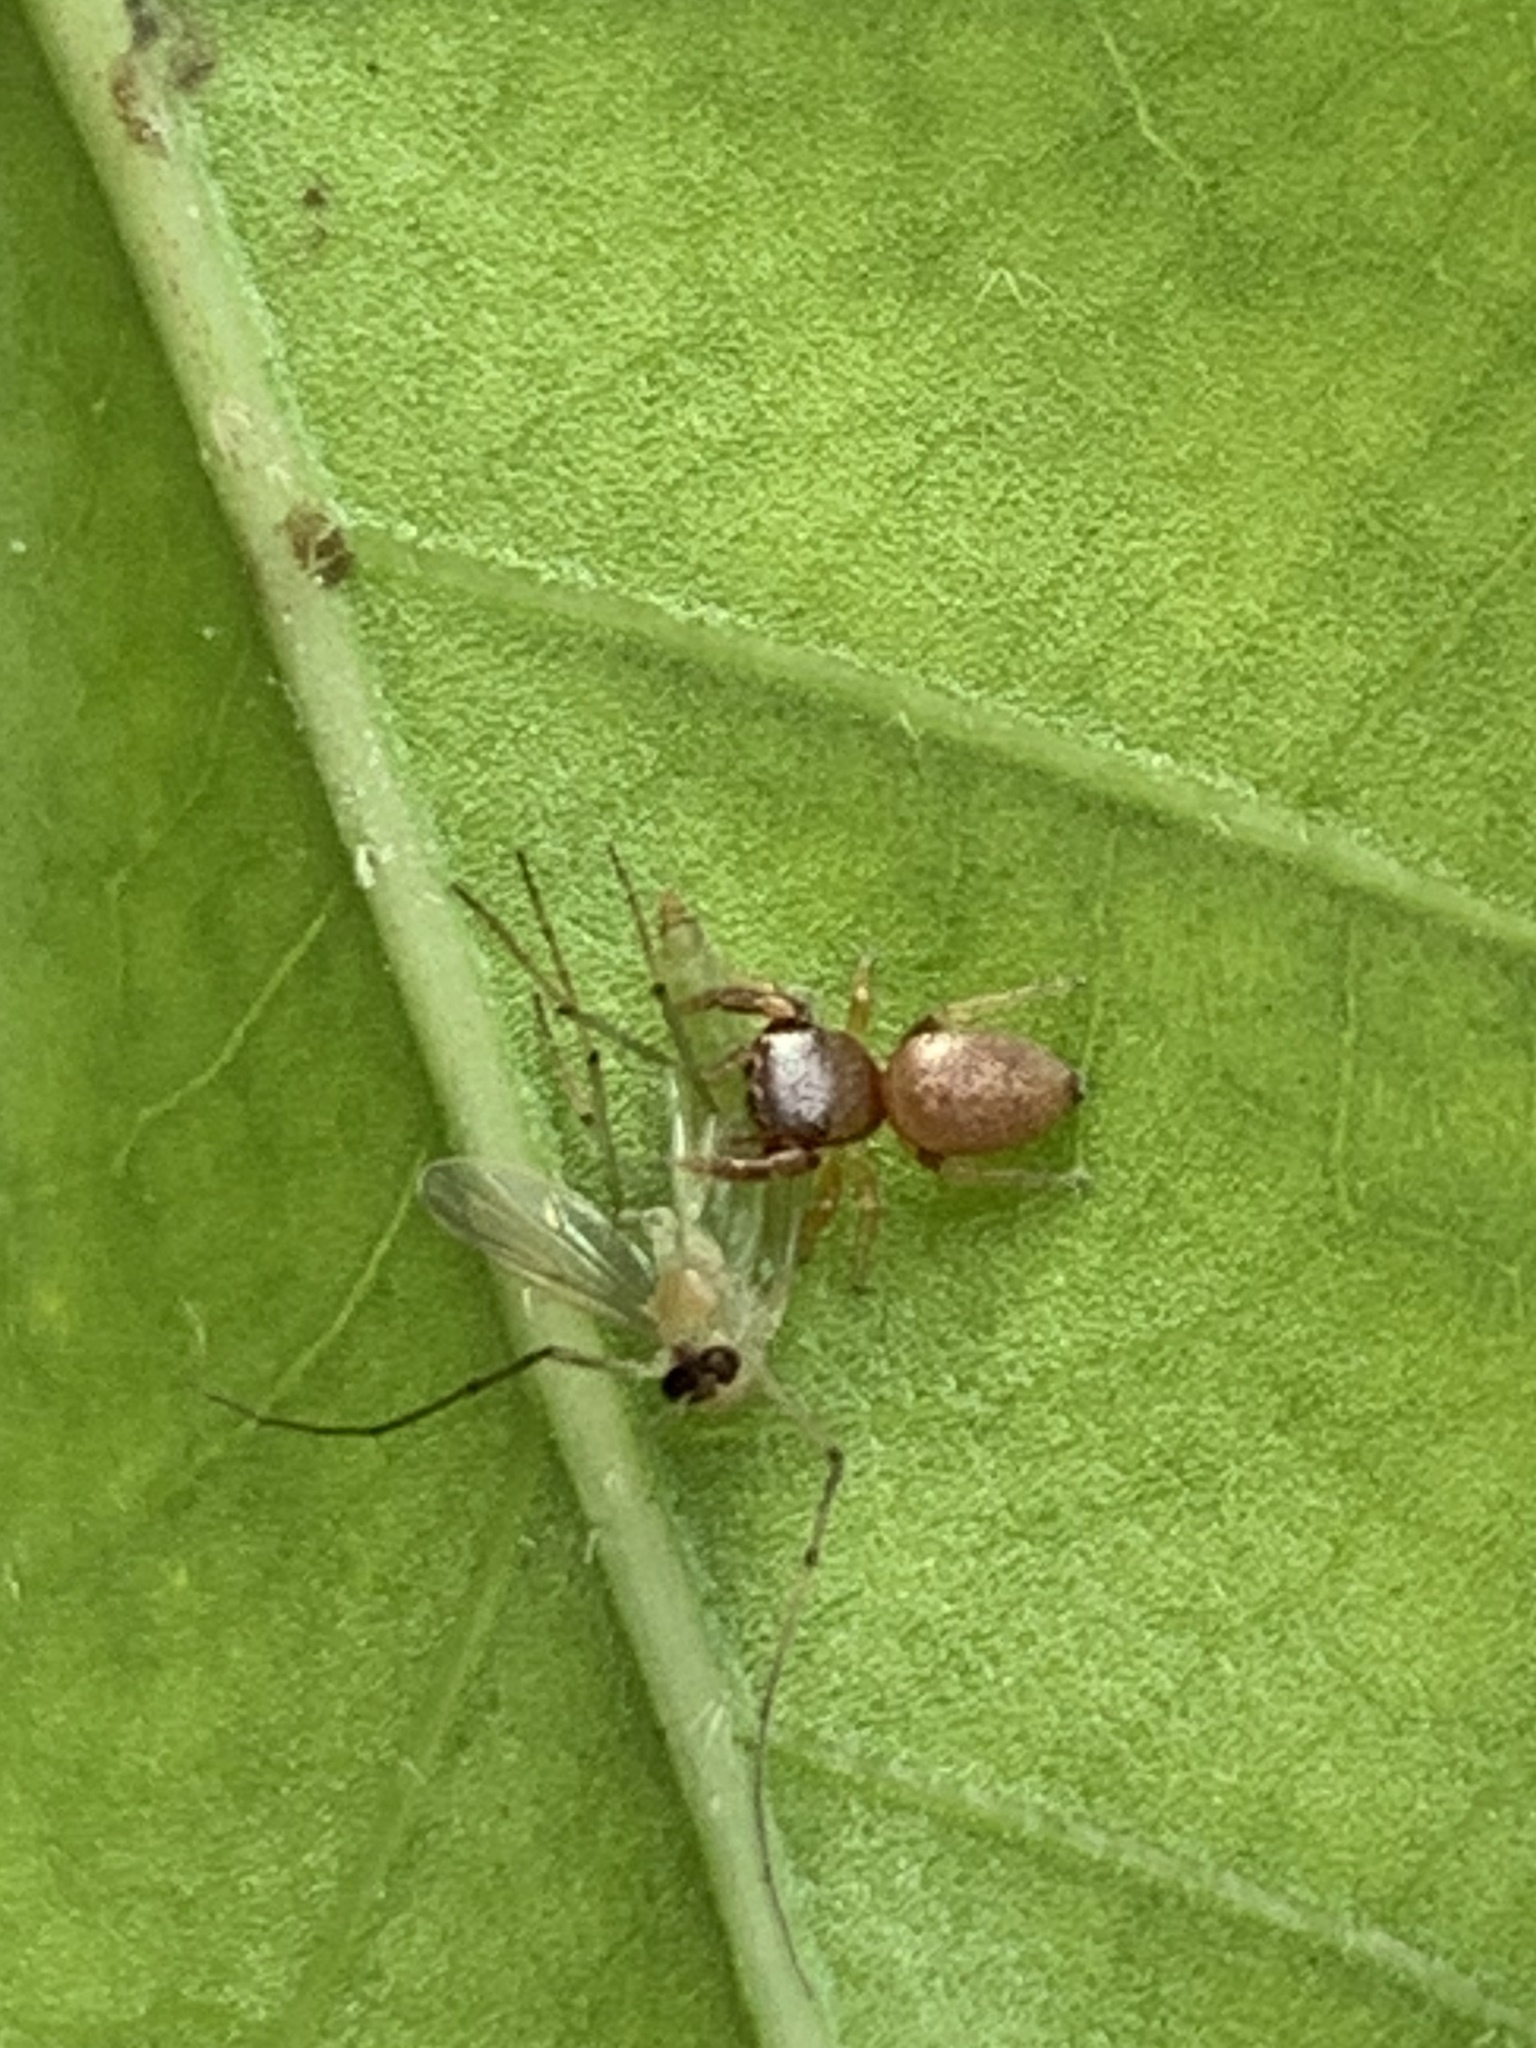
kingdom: Animalia
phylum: Arthropoda
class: Arachnida
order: Araneae
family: Salticidae
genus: Beata
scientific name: Beata wickhami
